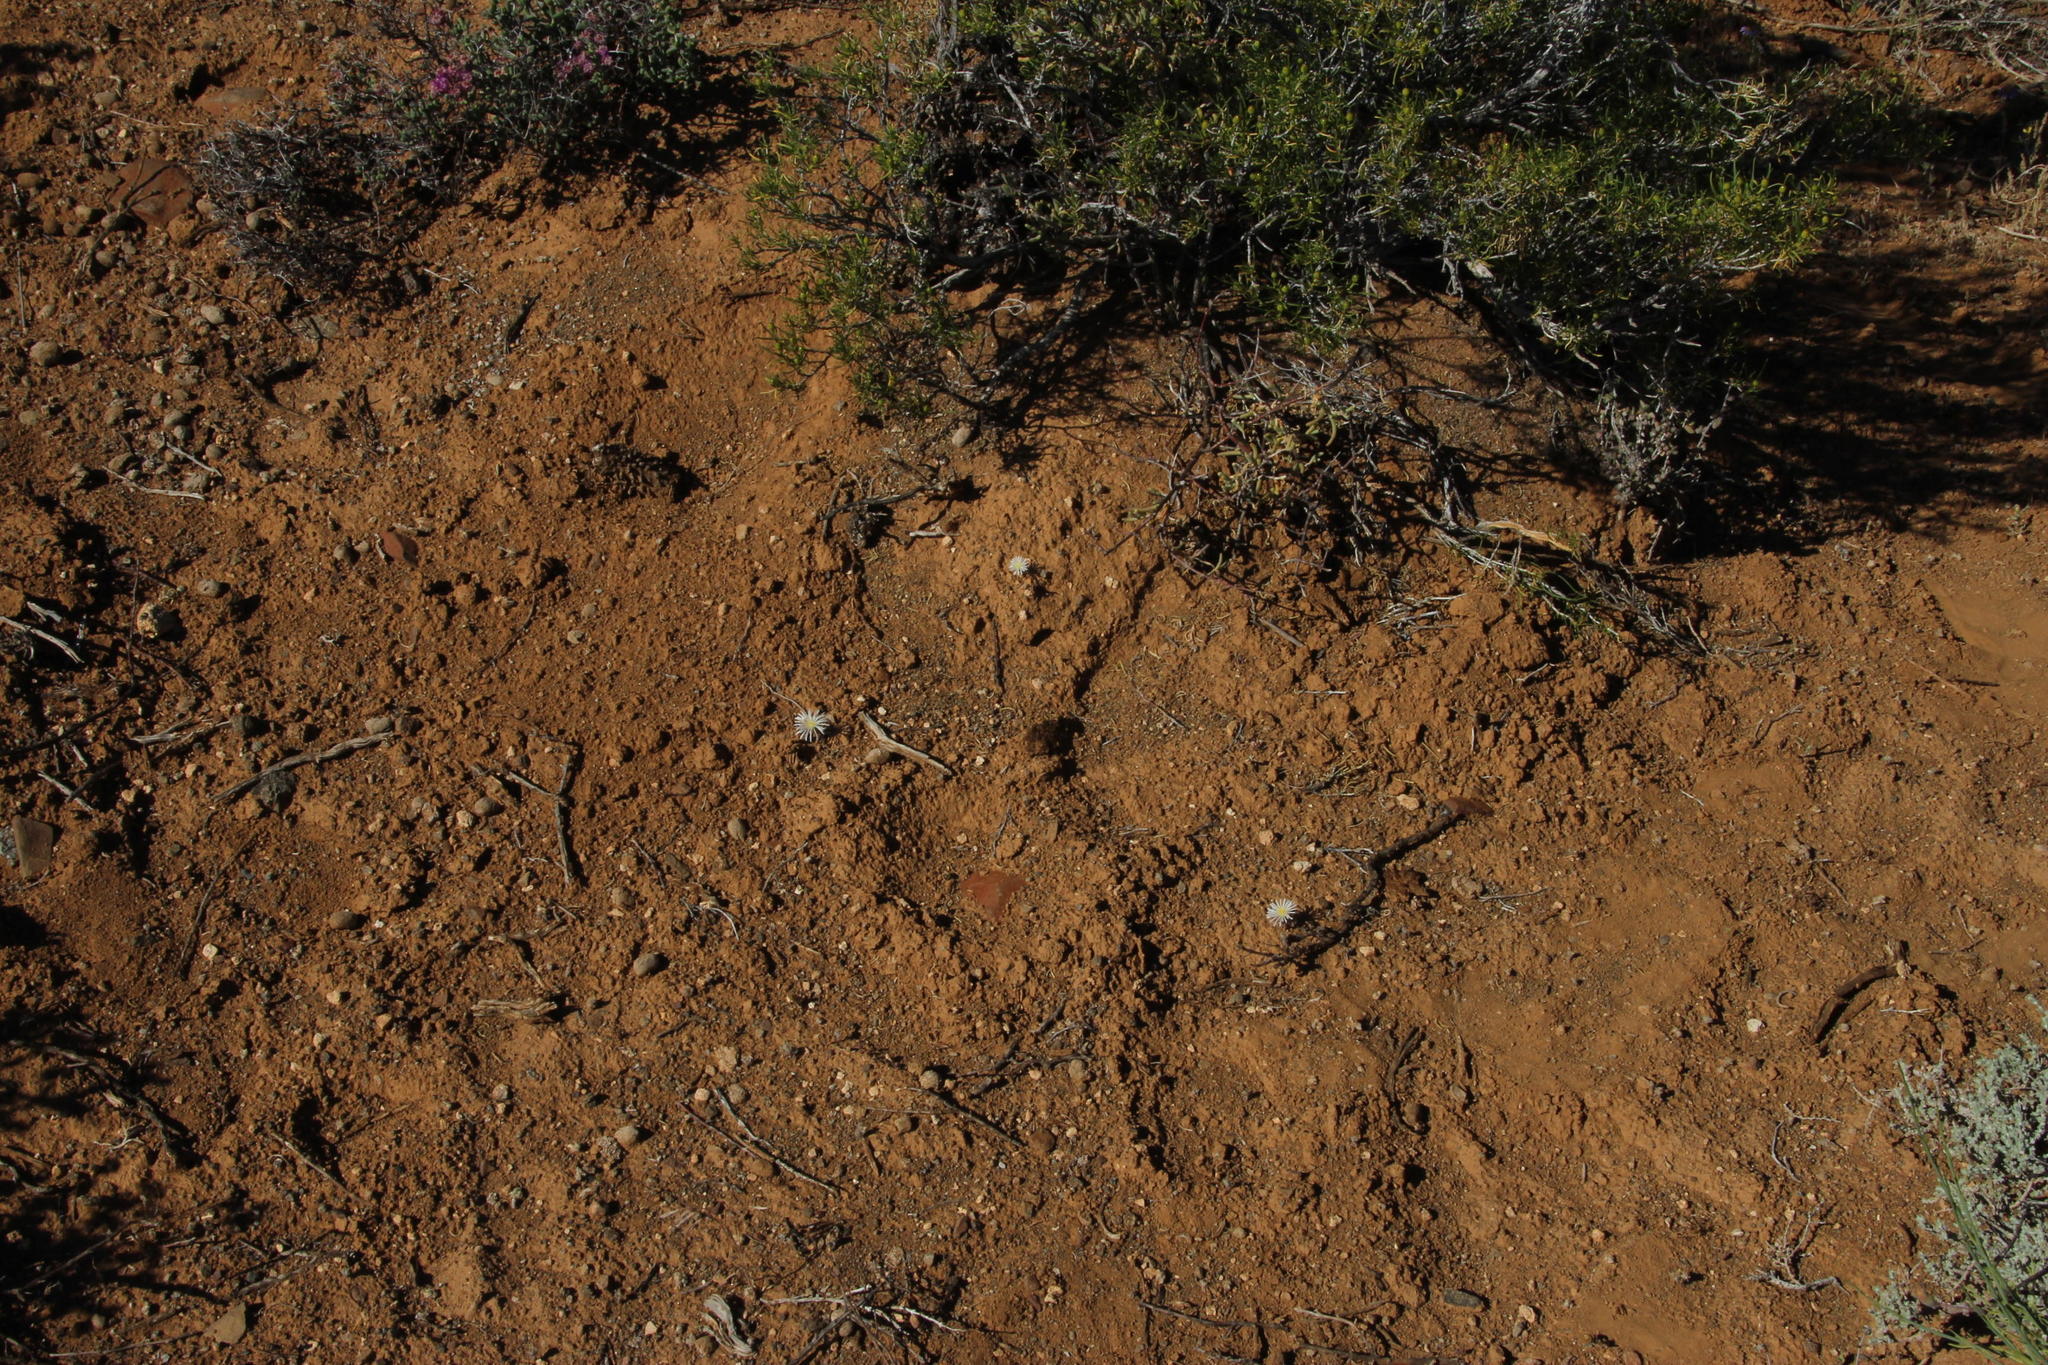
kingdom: Plantae
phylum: Tracheophyta
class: Magnoliopsida
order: Caryophyllales
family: Aizoaceae
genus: Mesembryanthemum
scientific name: Mesembryanthemum nodiflorum
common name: Slenderleaf iceplant
